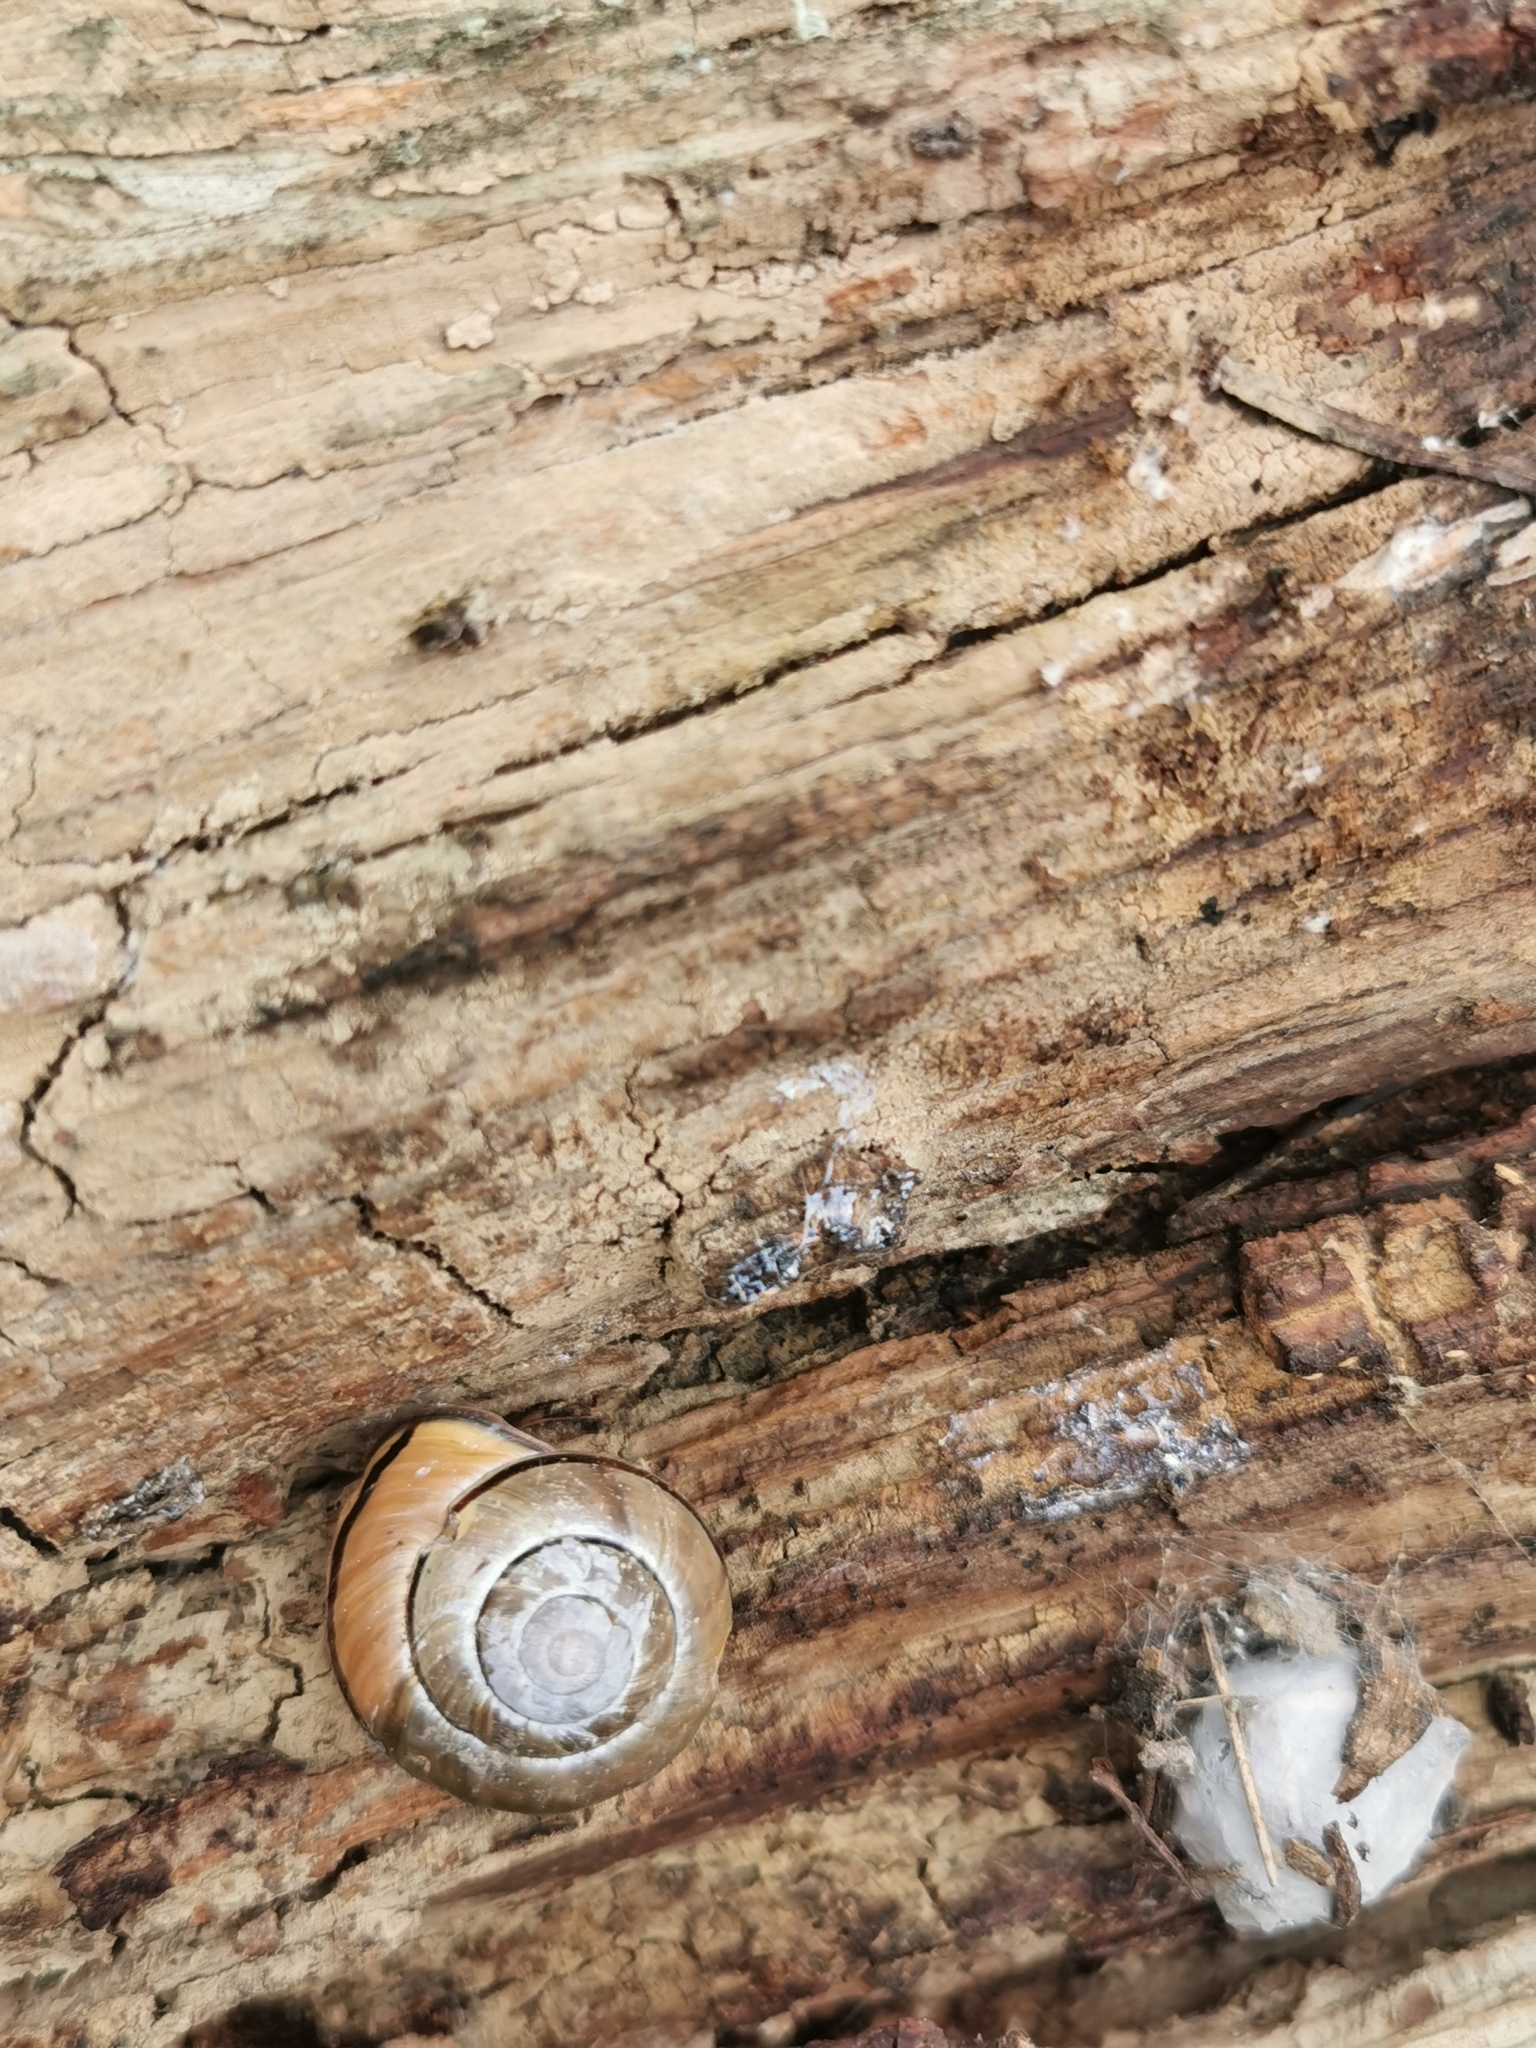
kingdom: Animalia
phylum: Mollusca
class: Gastropoda
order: Stylommatophora
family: Helicidae
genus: Cepaea
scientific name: Cepaea nemoralis
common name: Grovesnail
